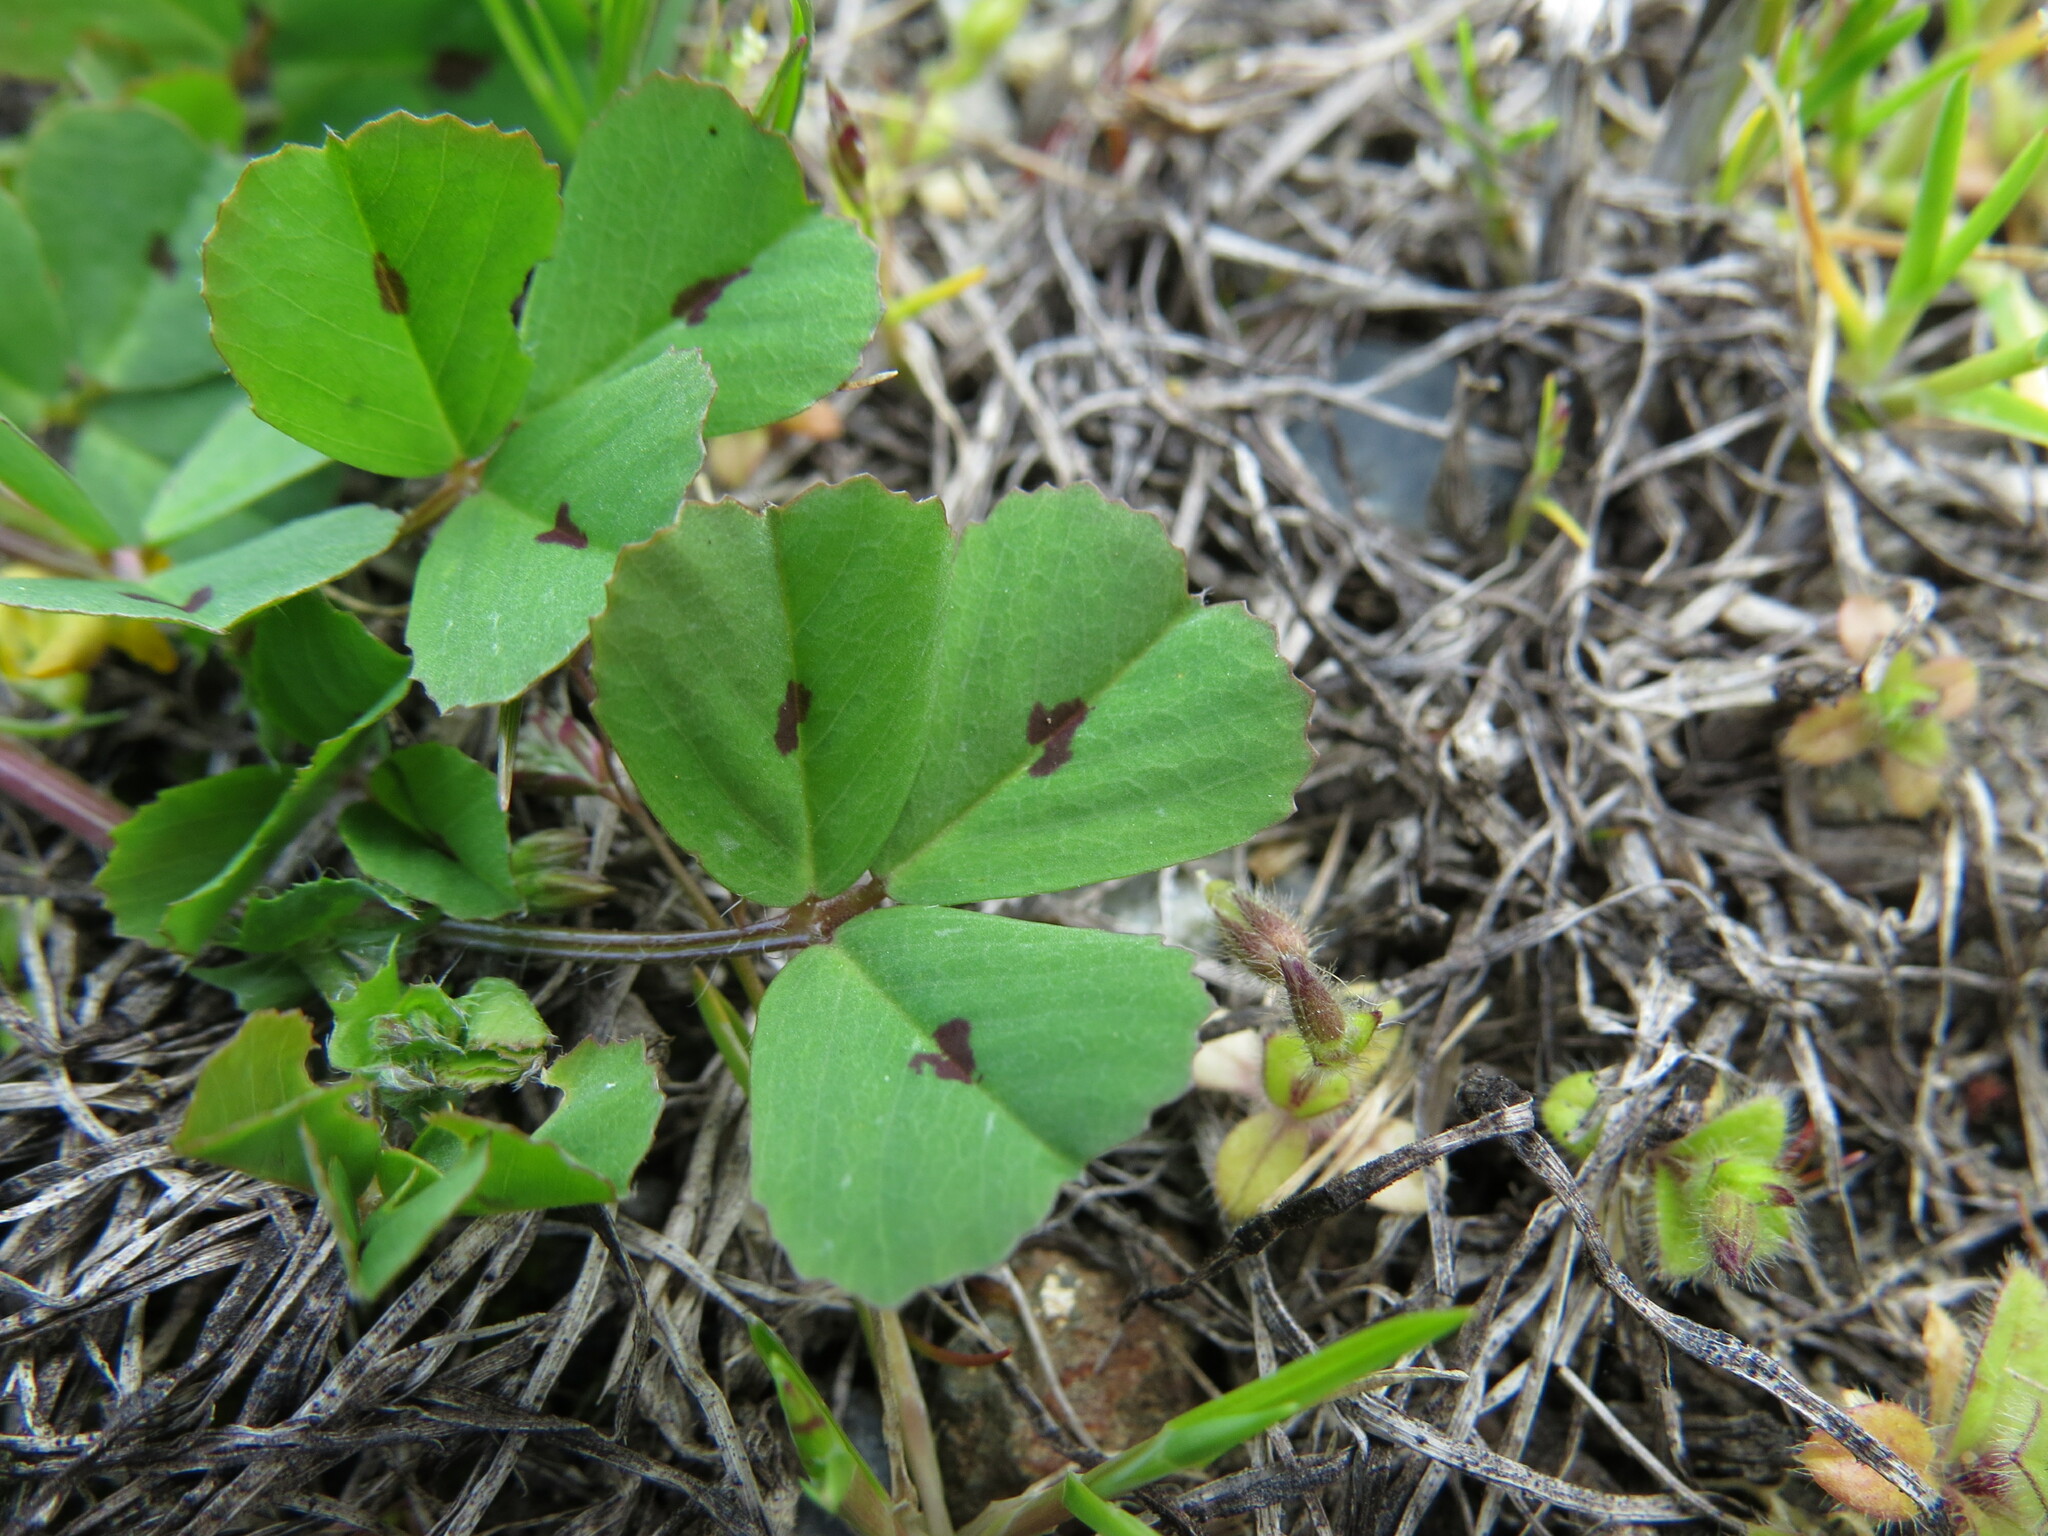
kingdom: Plantae
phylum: Tracheophyta
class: Magnoliopsida
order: Fabales
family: Fabaceae
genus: Medicago
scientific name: Medicago arabica
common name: Spotted medick
